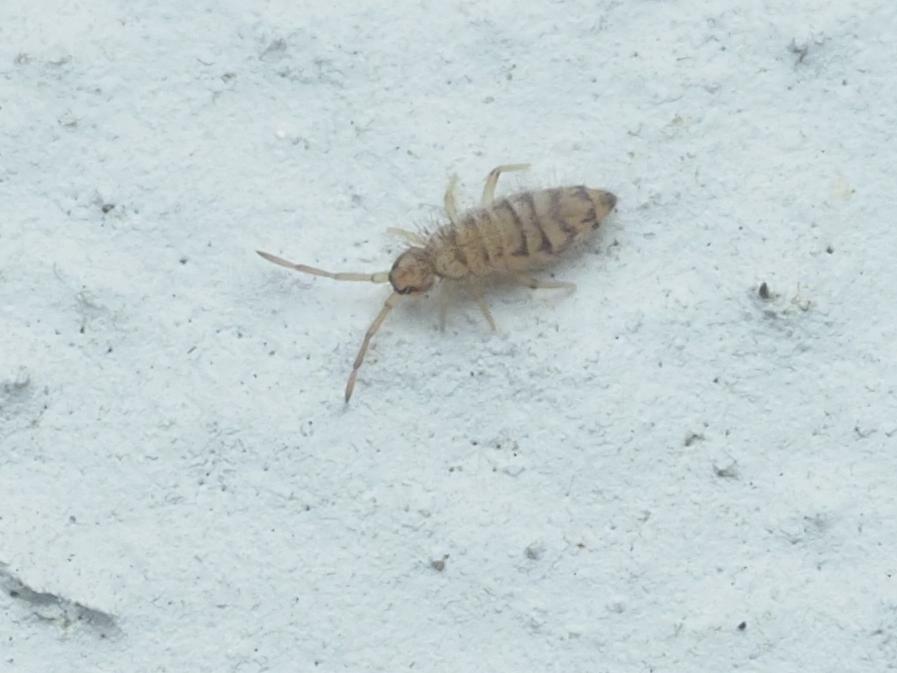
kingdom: Animalia
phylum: Arthropoda
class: Collembola
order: Entomobryomorpha
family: Entomobryidae
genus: Entomobrya
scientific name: Entomobrya multifasciata
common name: Springtail
